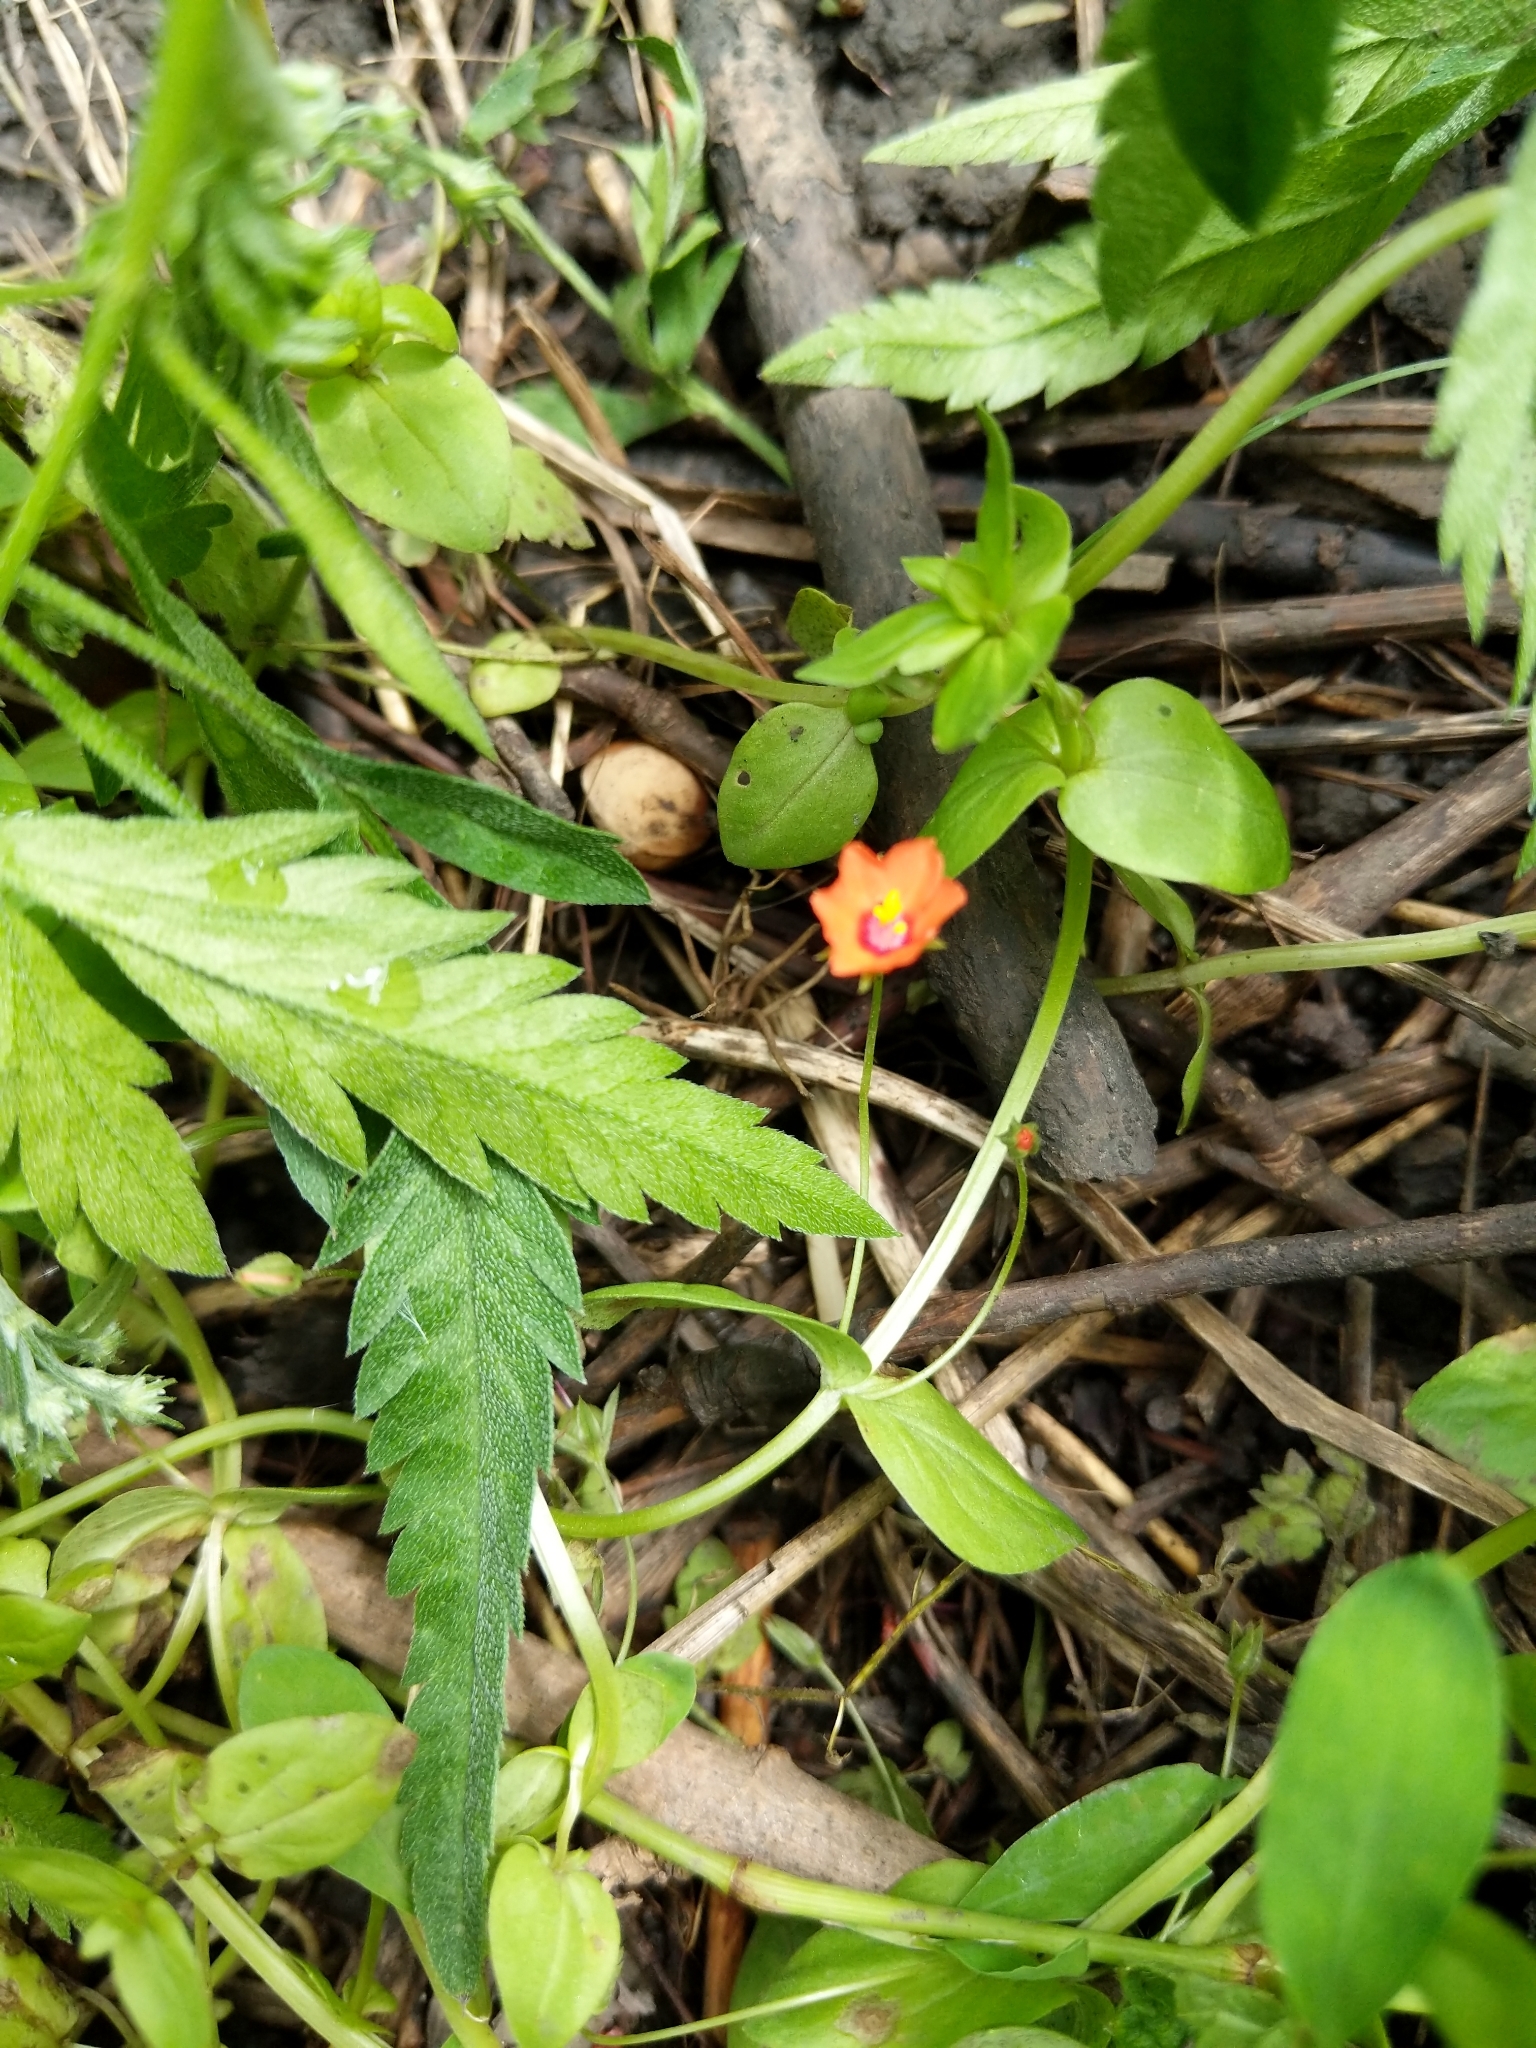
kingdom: Plantae
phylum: Tracheophyta
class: Magnoliopsida
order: Ericales
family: Primulaceae
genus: Lysimachia
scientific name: Lysimachia arvensis
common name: Scarlet pimpernel
